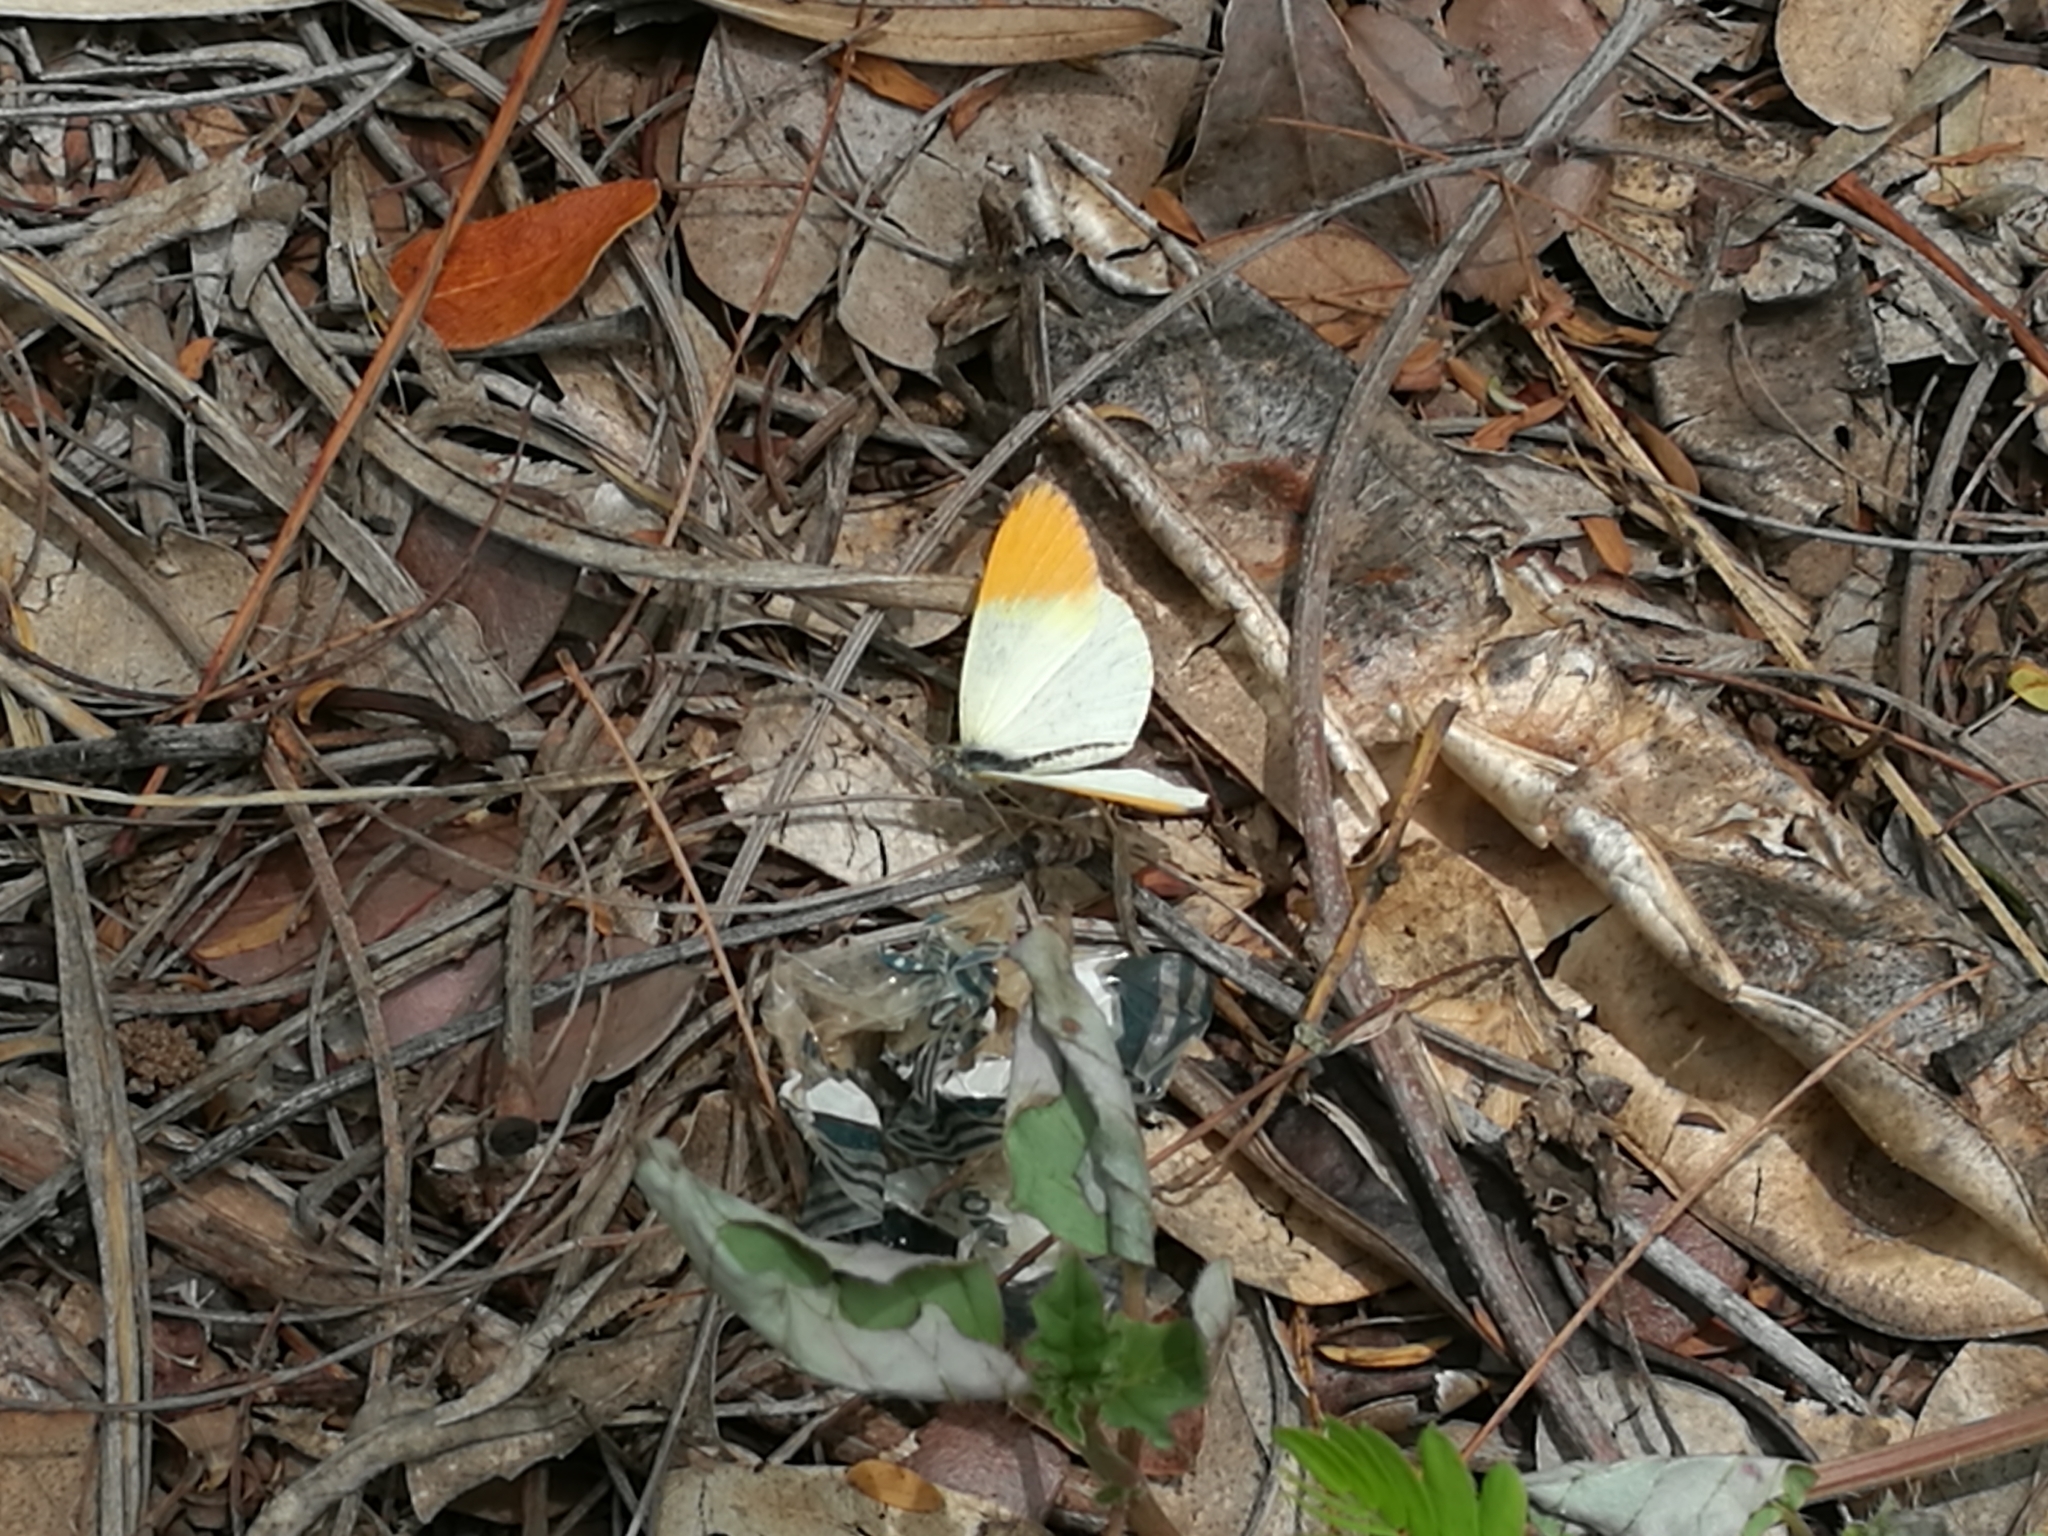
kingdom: Animalia
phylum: Arthropoda
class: Insecta
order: Lepidoptera
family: Pieridae
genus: Colotis
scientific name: Colotis liagore
